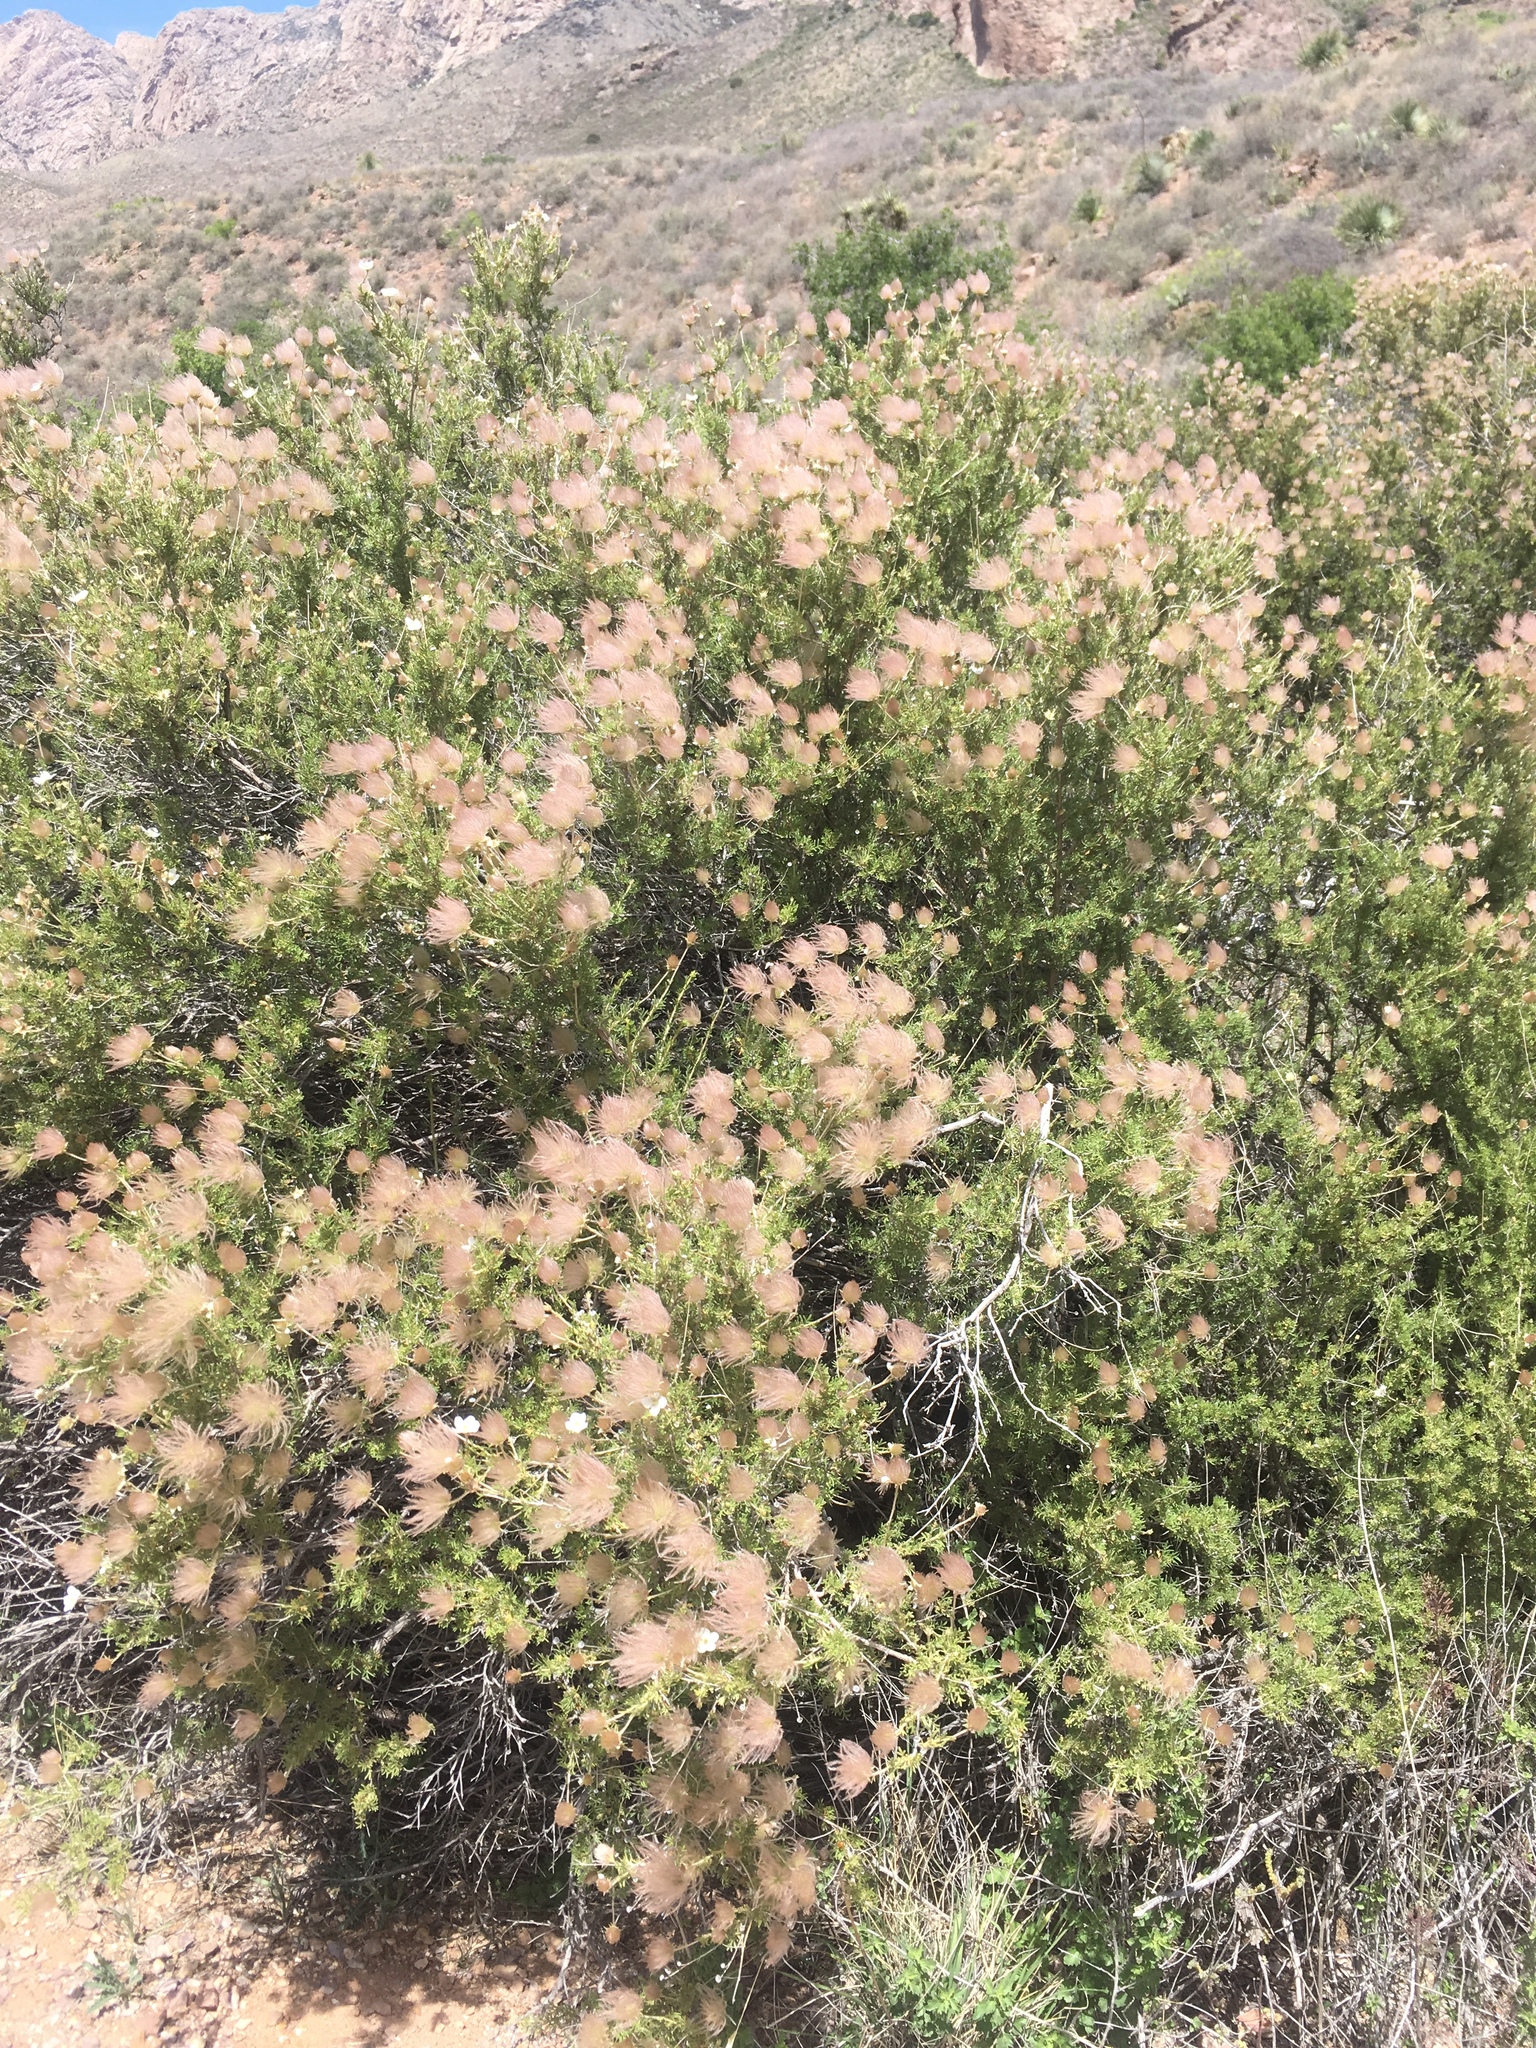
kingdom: Plantae
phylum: Tracheophyta
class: Magnoliopsida
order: Rosales
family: Rosaceae
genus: Fallugia
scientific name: Fallugia paradoxa
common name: Apache-plume
